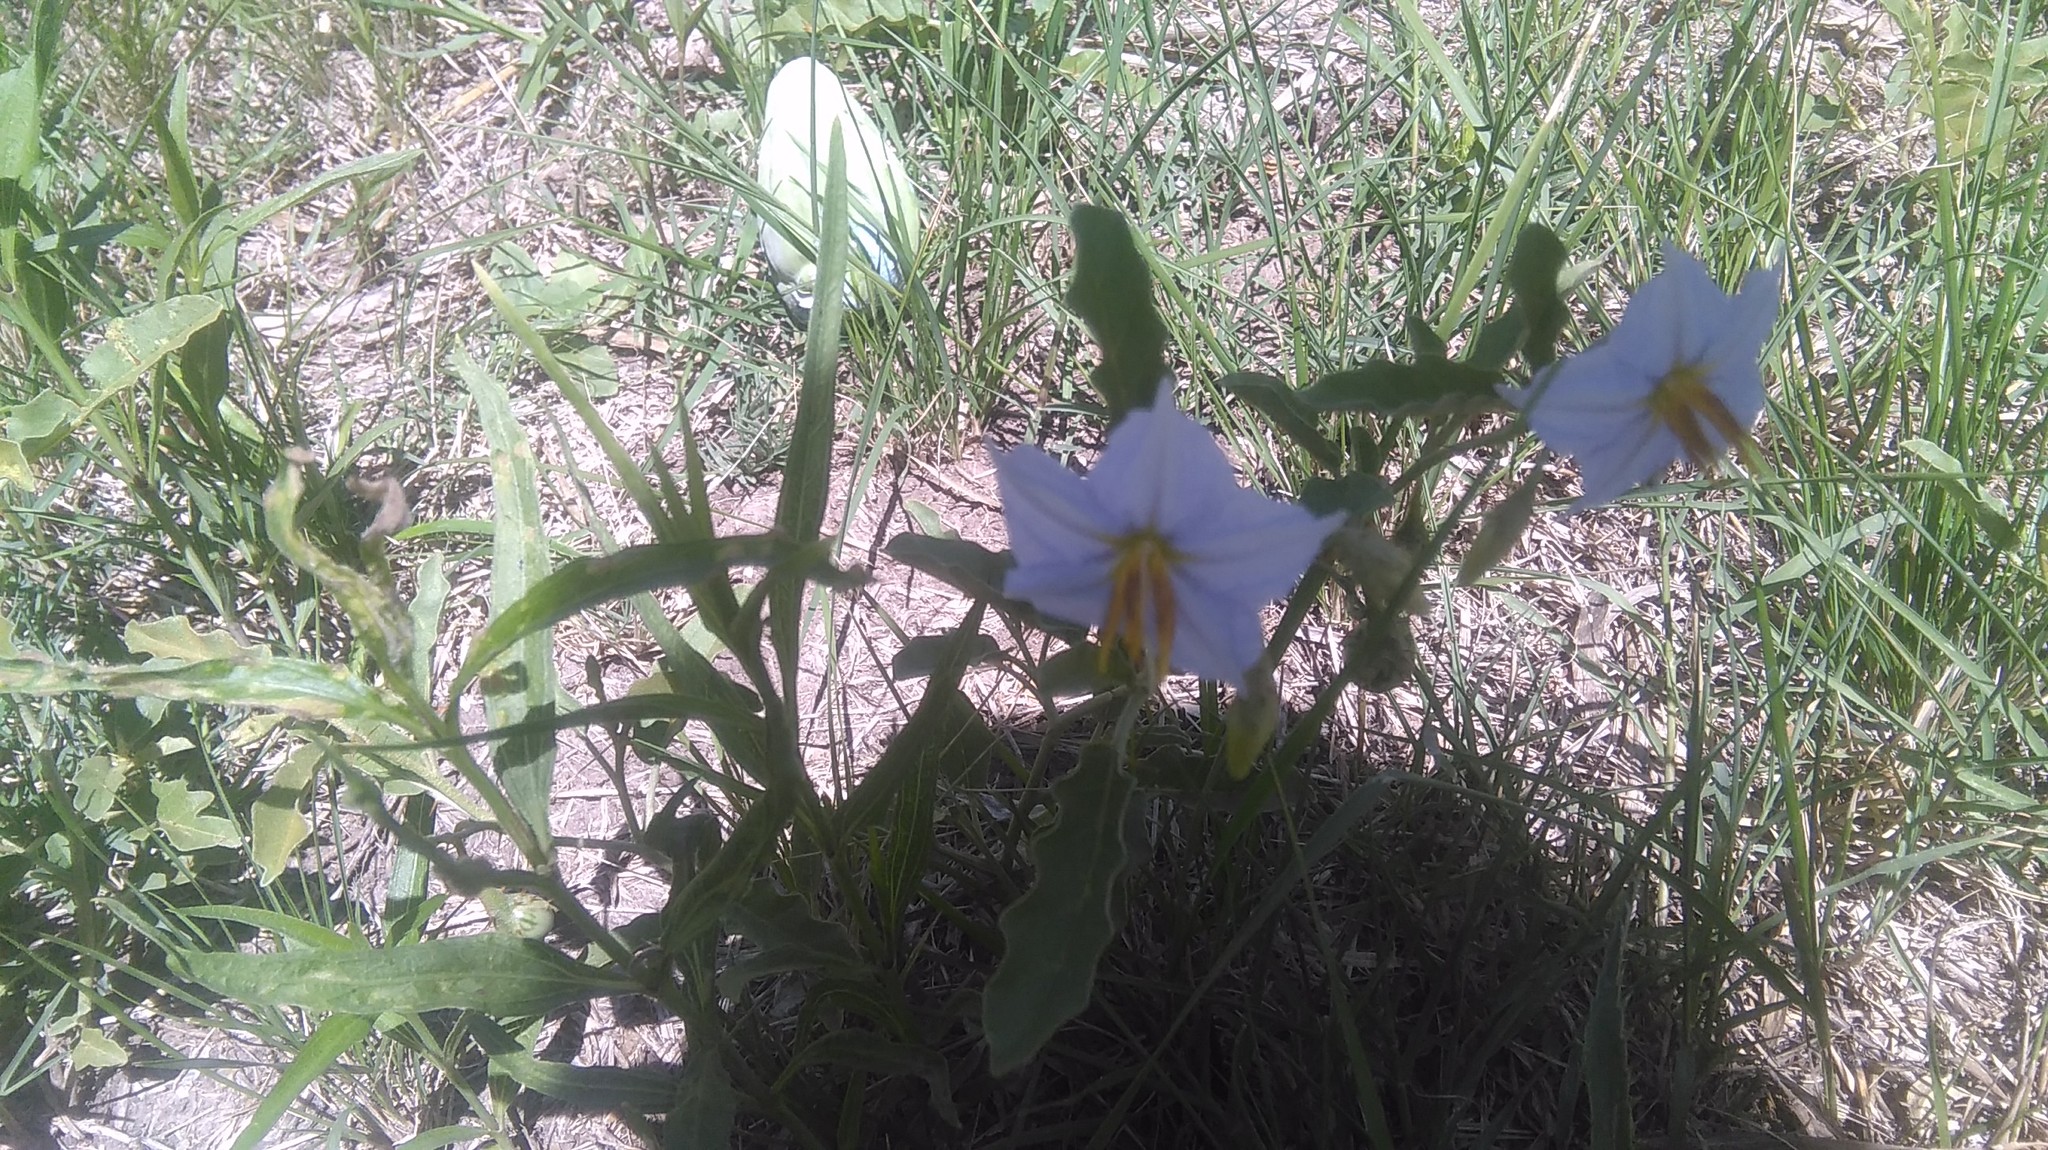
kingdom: Plantae
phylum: Tracheophyta
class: Magnoliopsida
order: Solanales
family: Solanaceae
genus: Solanum
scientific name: Solanum elaeagnifolium
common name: Silverleaf nightshade
